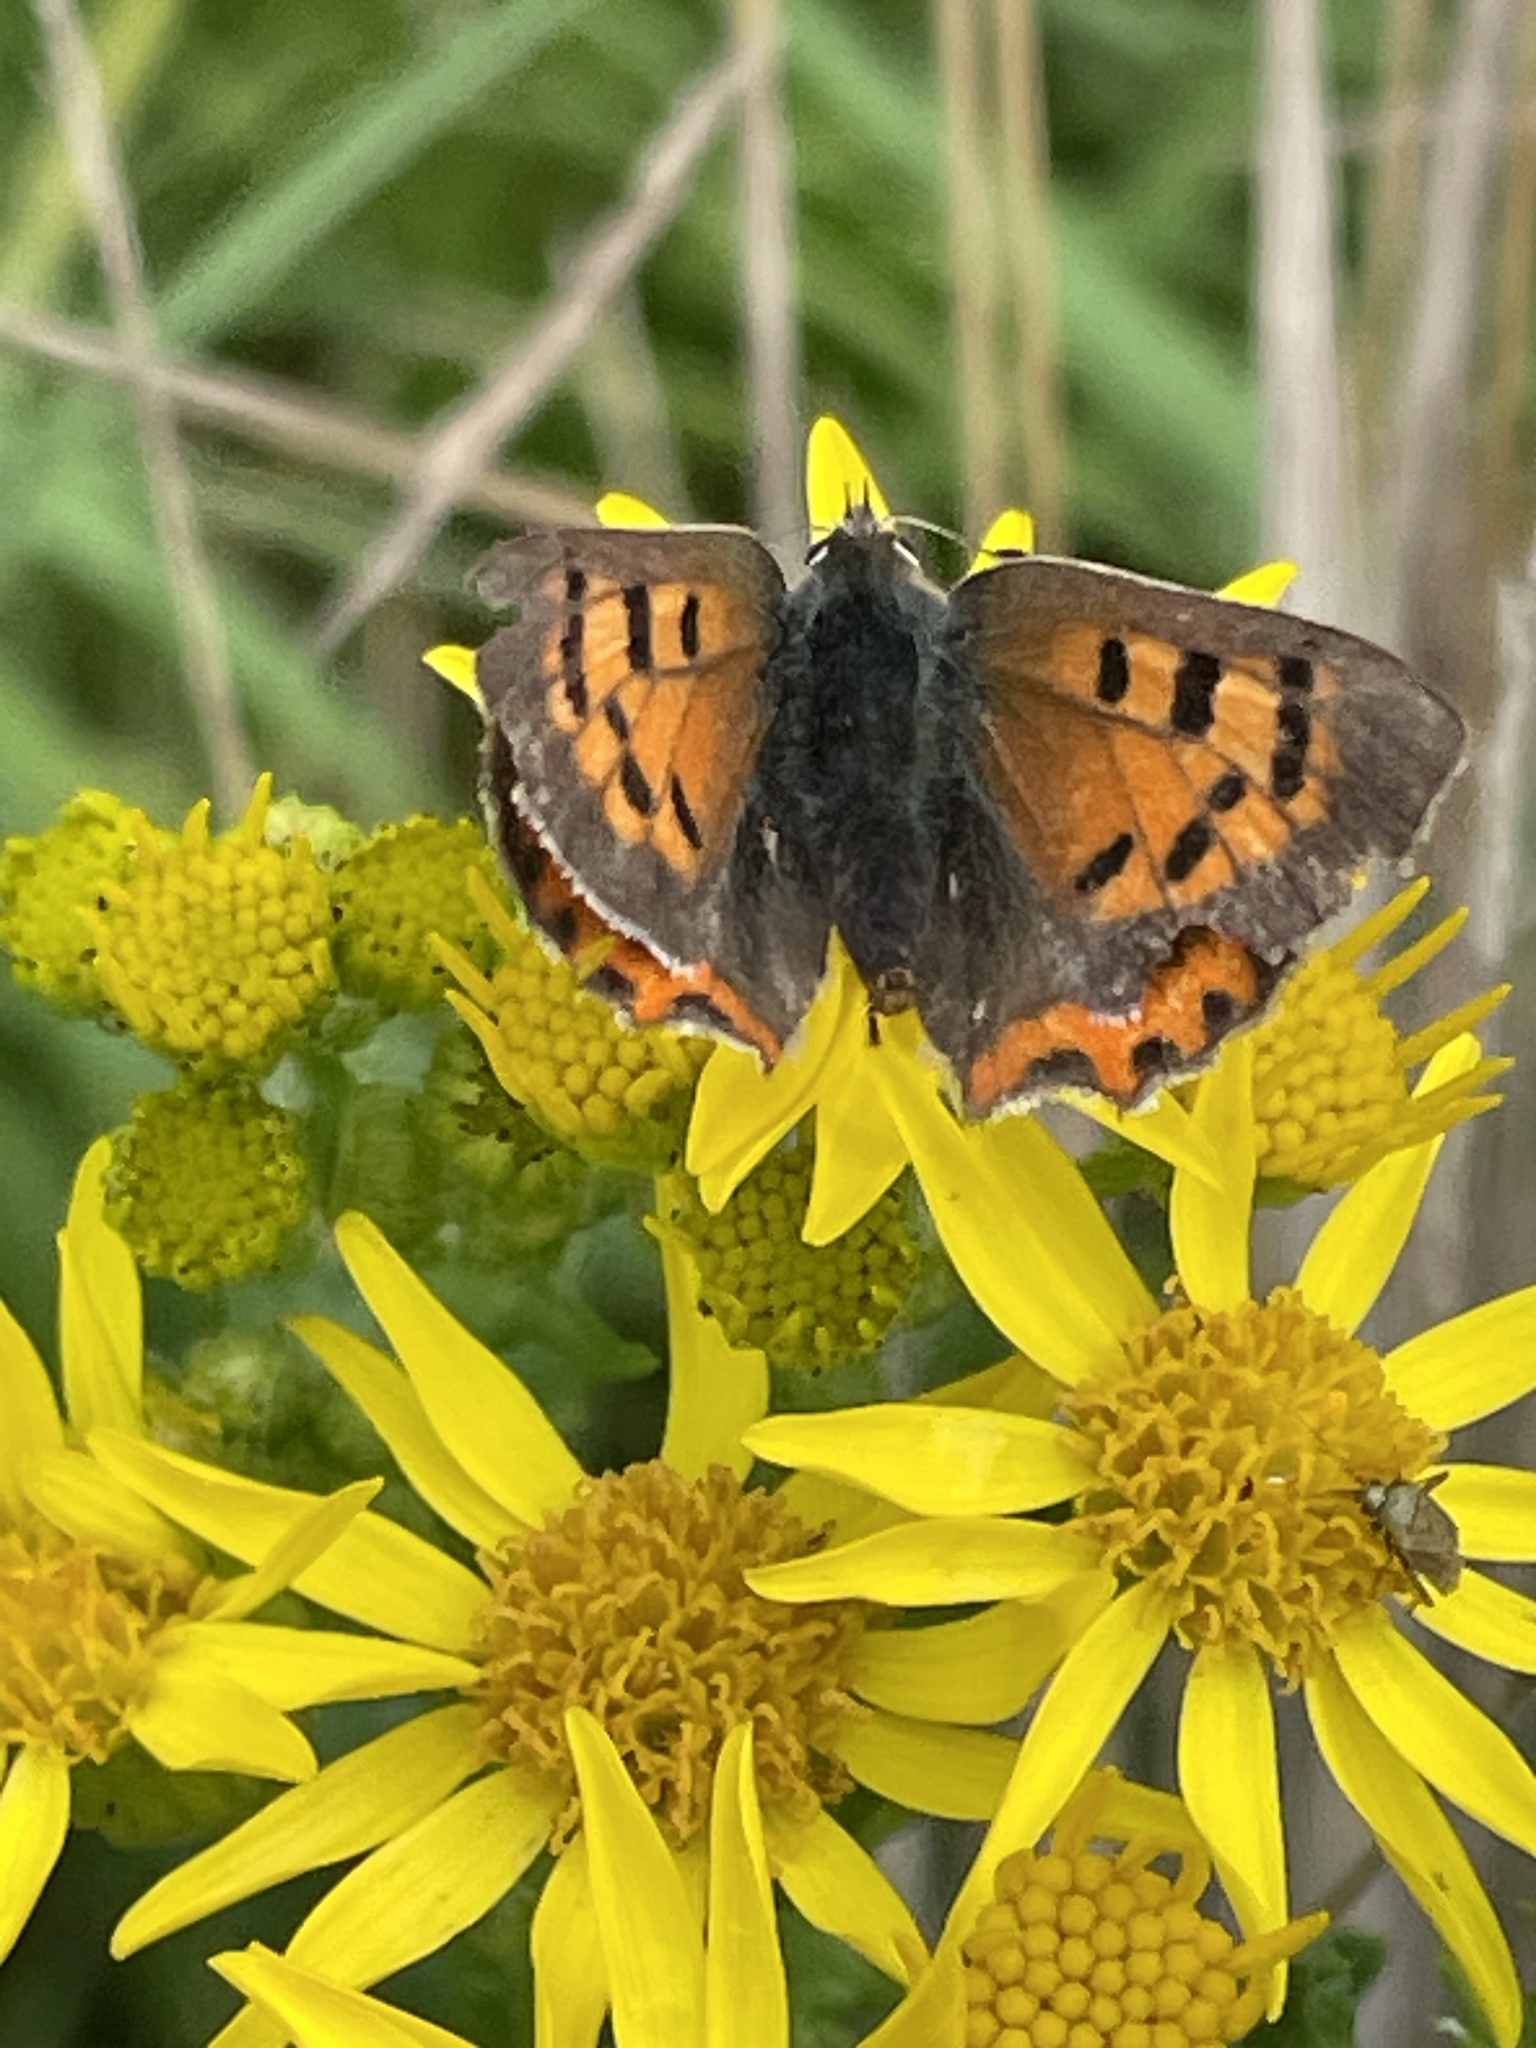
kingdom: Animalia
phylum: Arthropoda
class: Insecta
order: Lepidoptera
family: Lycaenidae
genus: Lycaena
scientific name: Lycaena phlaeas
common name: Small copper
